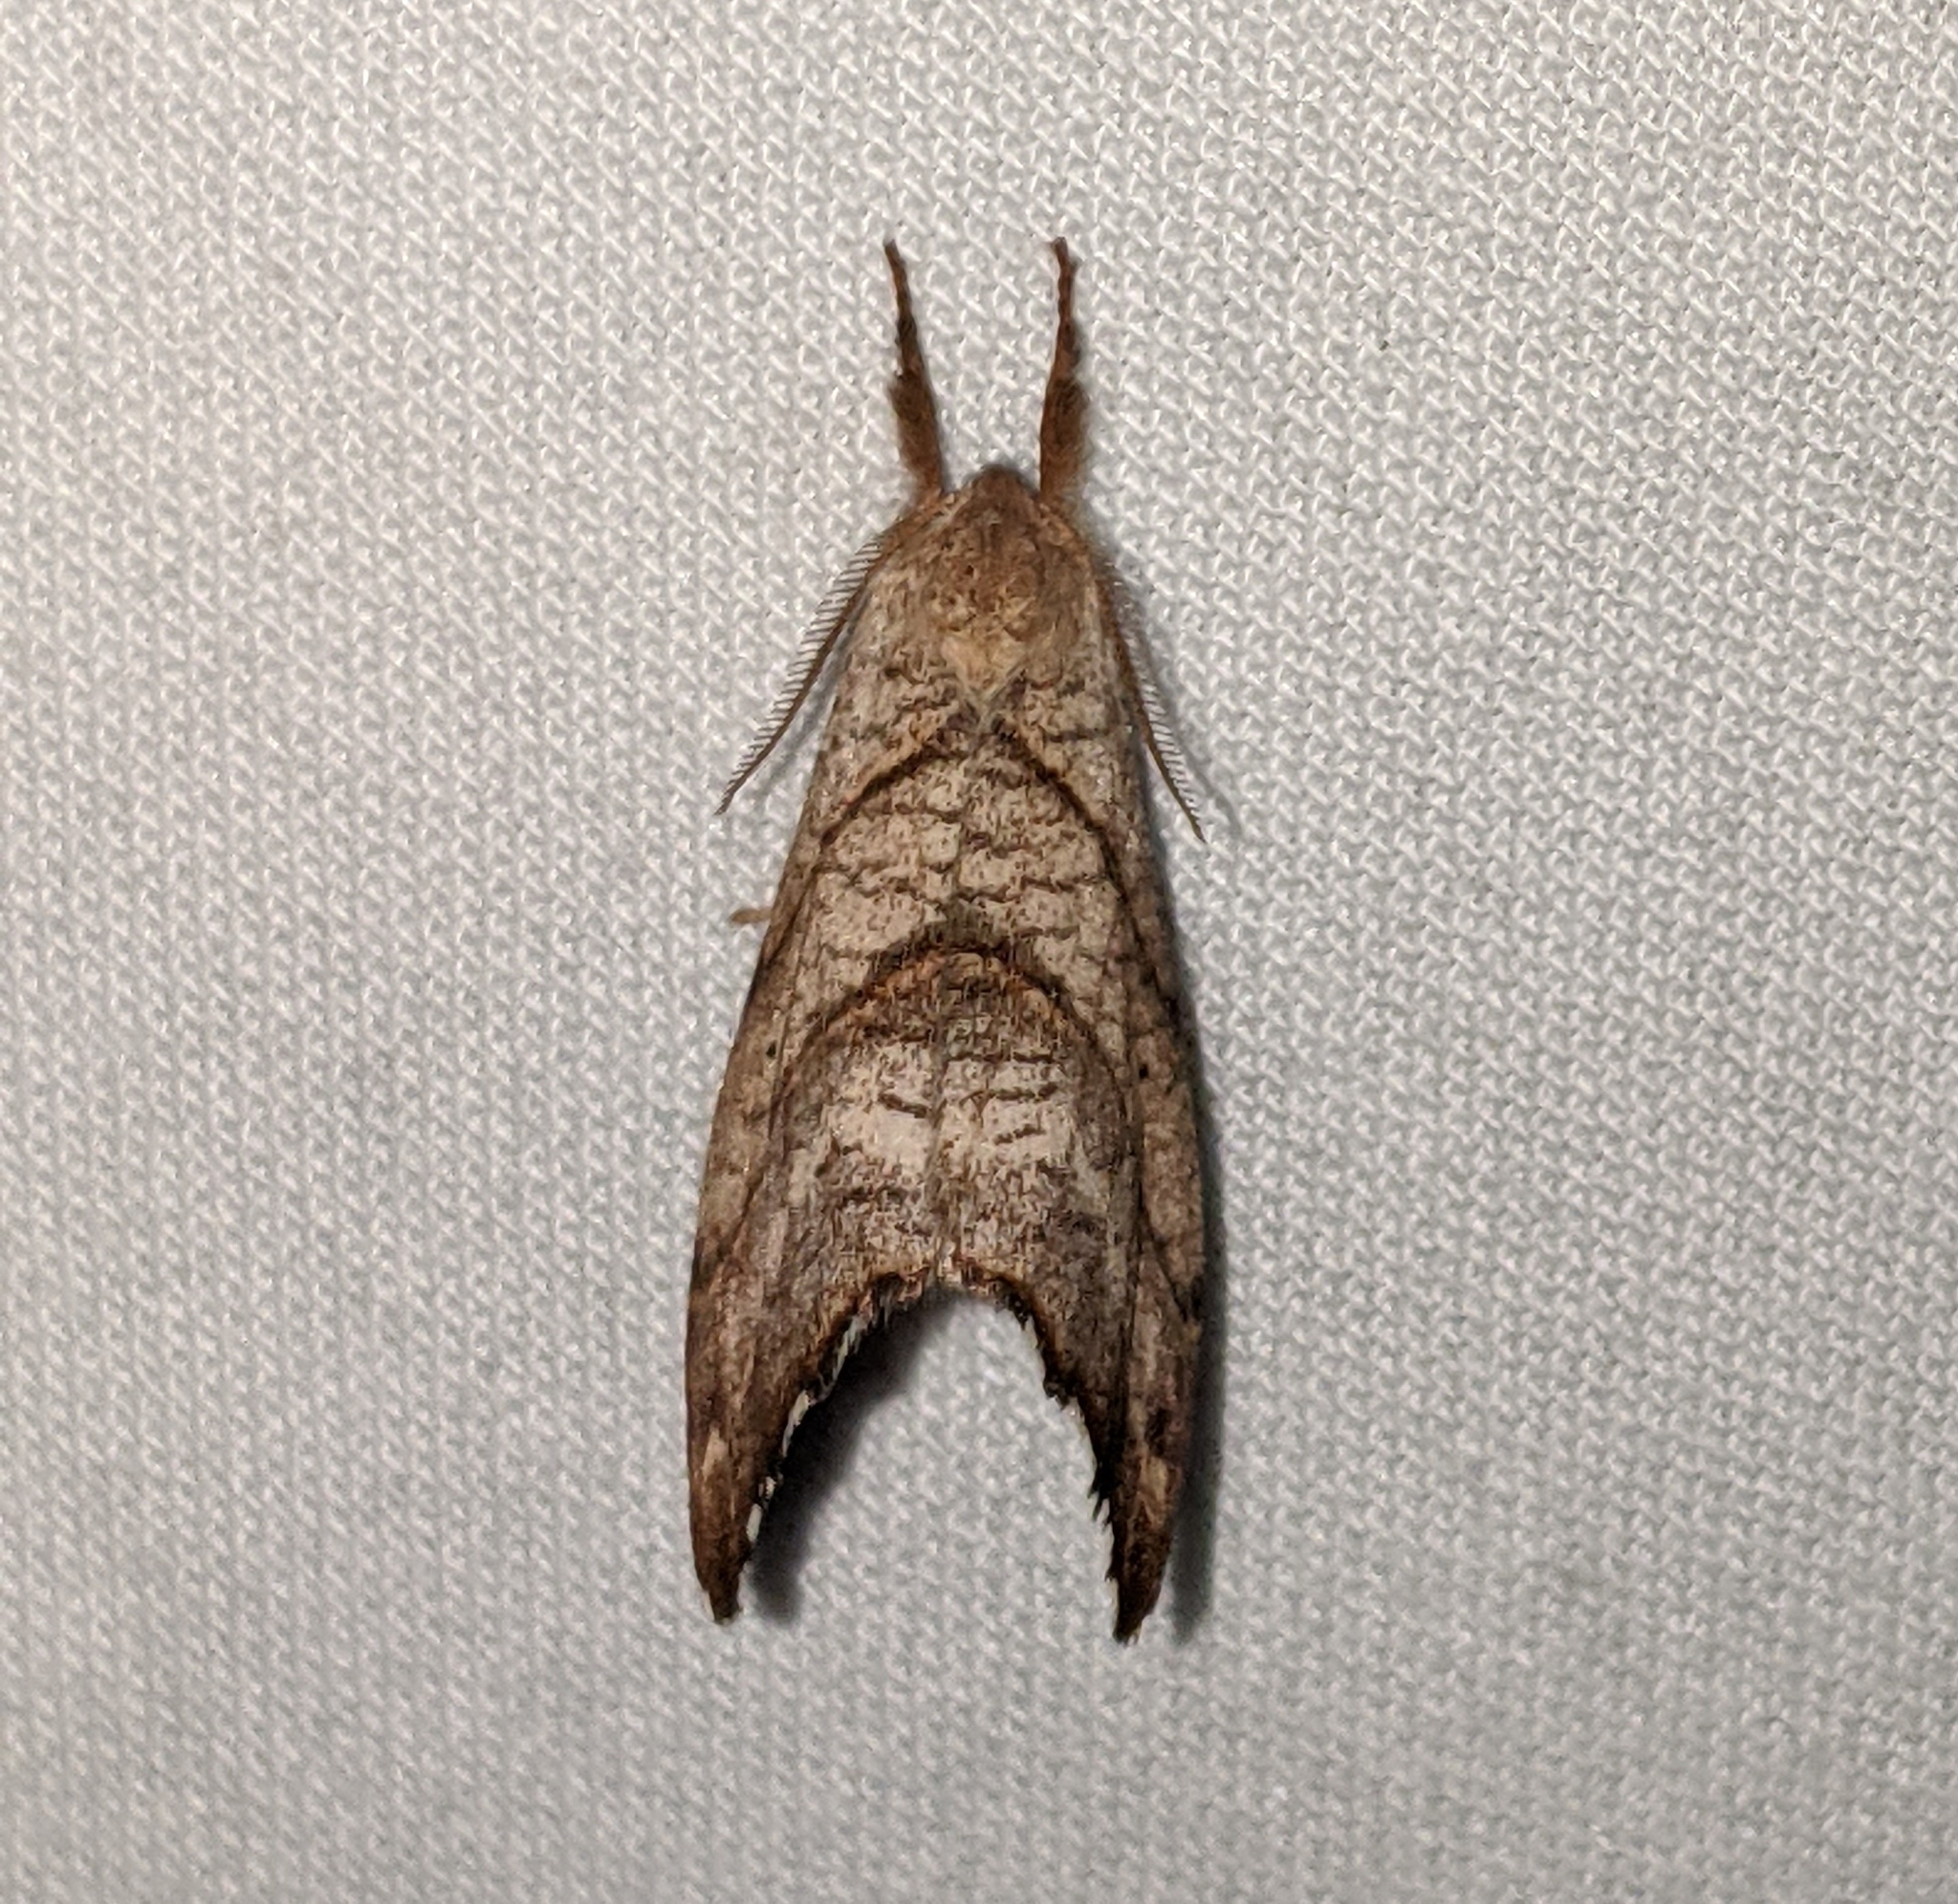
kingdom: Animalia
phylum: Arthropoda
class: Insecta
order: Lepidoptera
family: Drepanidae
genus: Falcaria
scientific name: Falcaria bilineata
